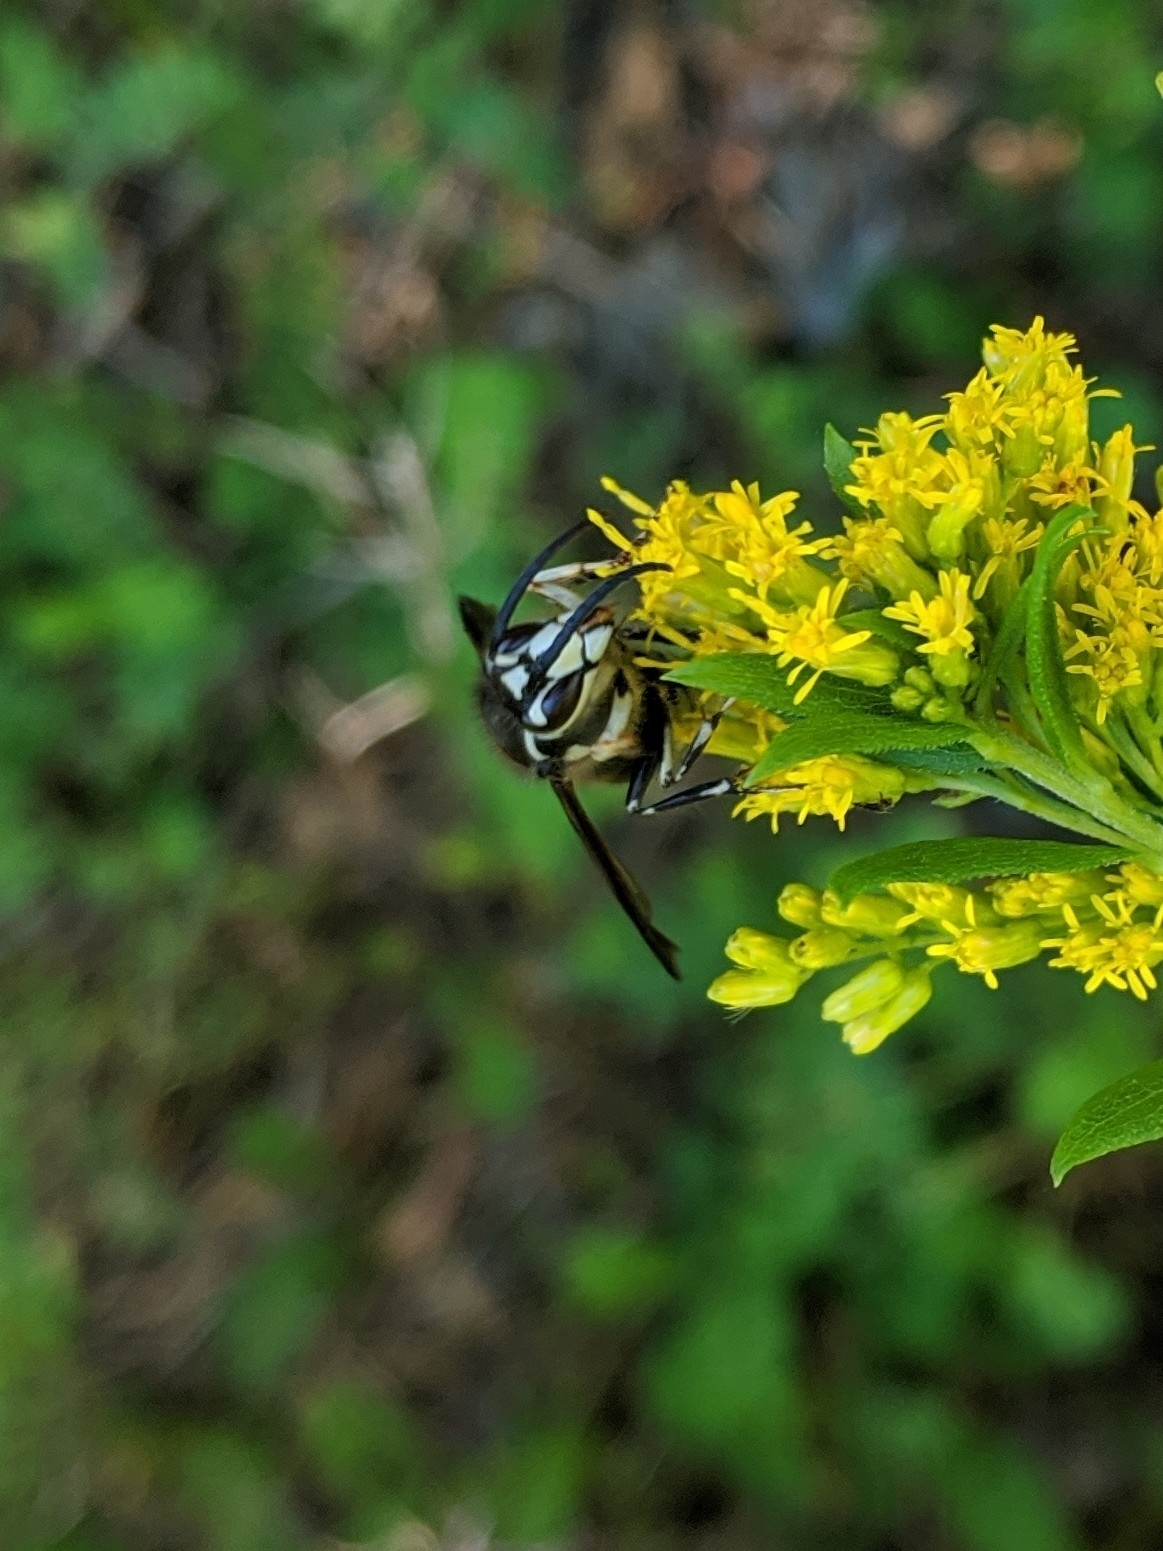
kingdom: Animalia
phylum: Arthropoda
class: Insecta
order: Hymenoptera
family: Vespidae
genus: Dolichovespula
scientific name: Dolichovespula maculata
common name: Bald-faced hornet
